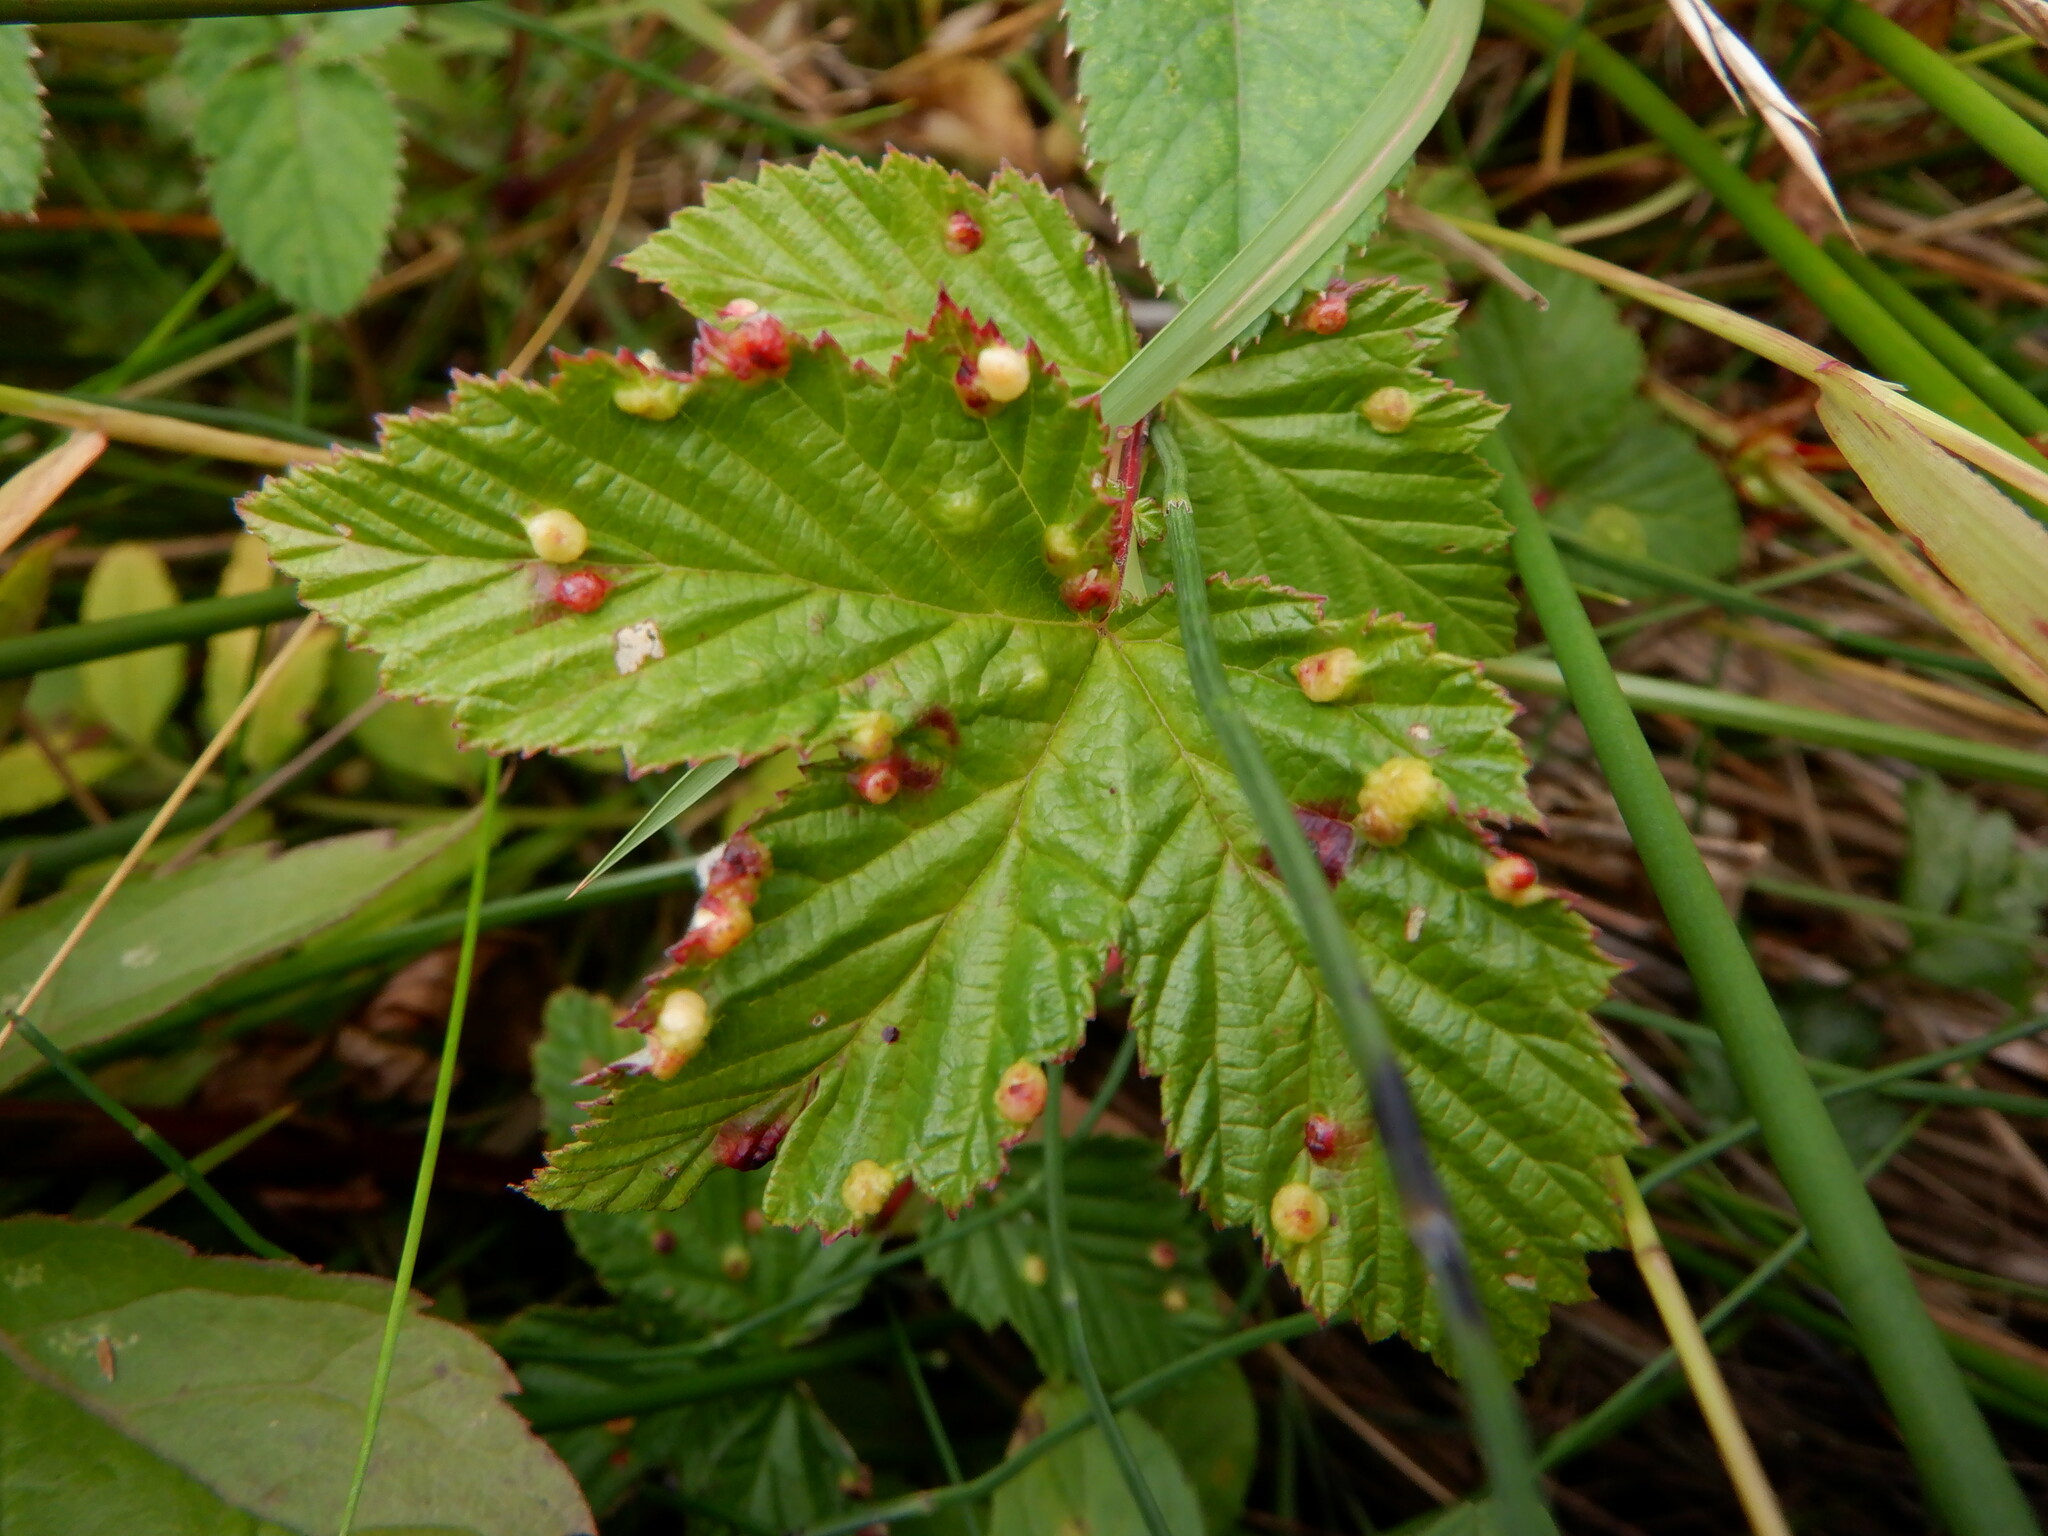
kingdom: Animalia
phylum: Arthropoda
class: Insecta
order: Diptera
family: Cecidomyiidae
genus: Dasineura
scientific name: Dasineura ulmaria
